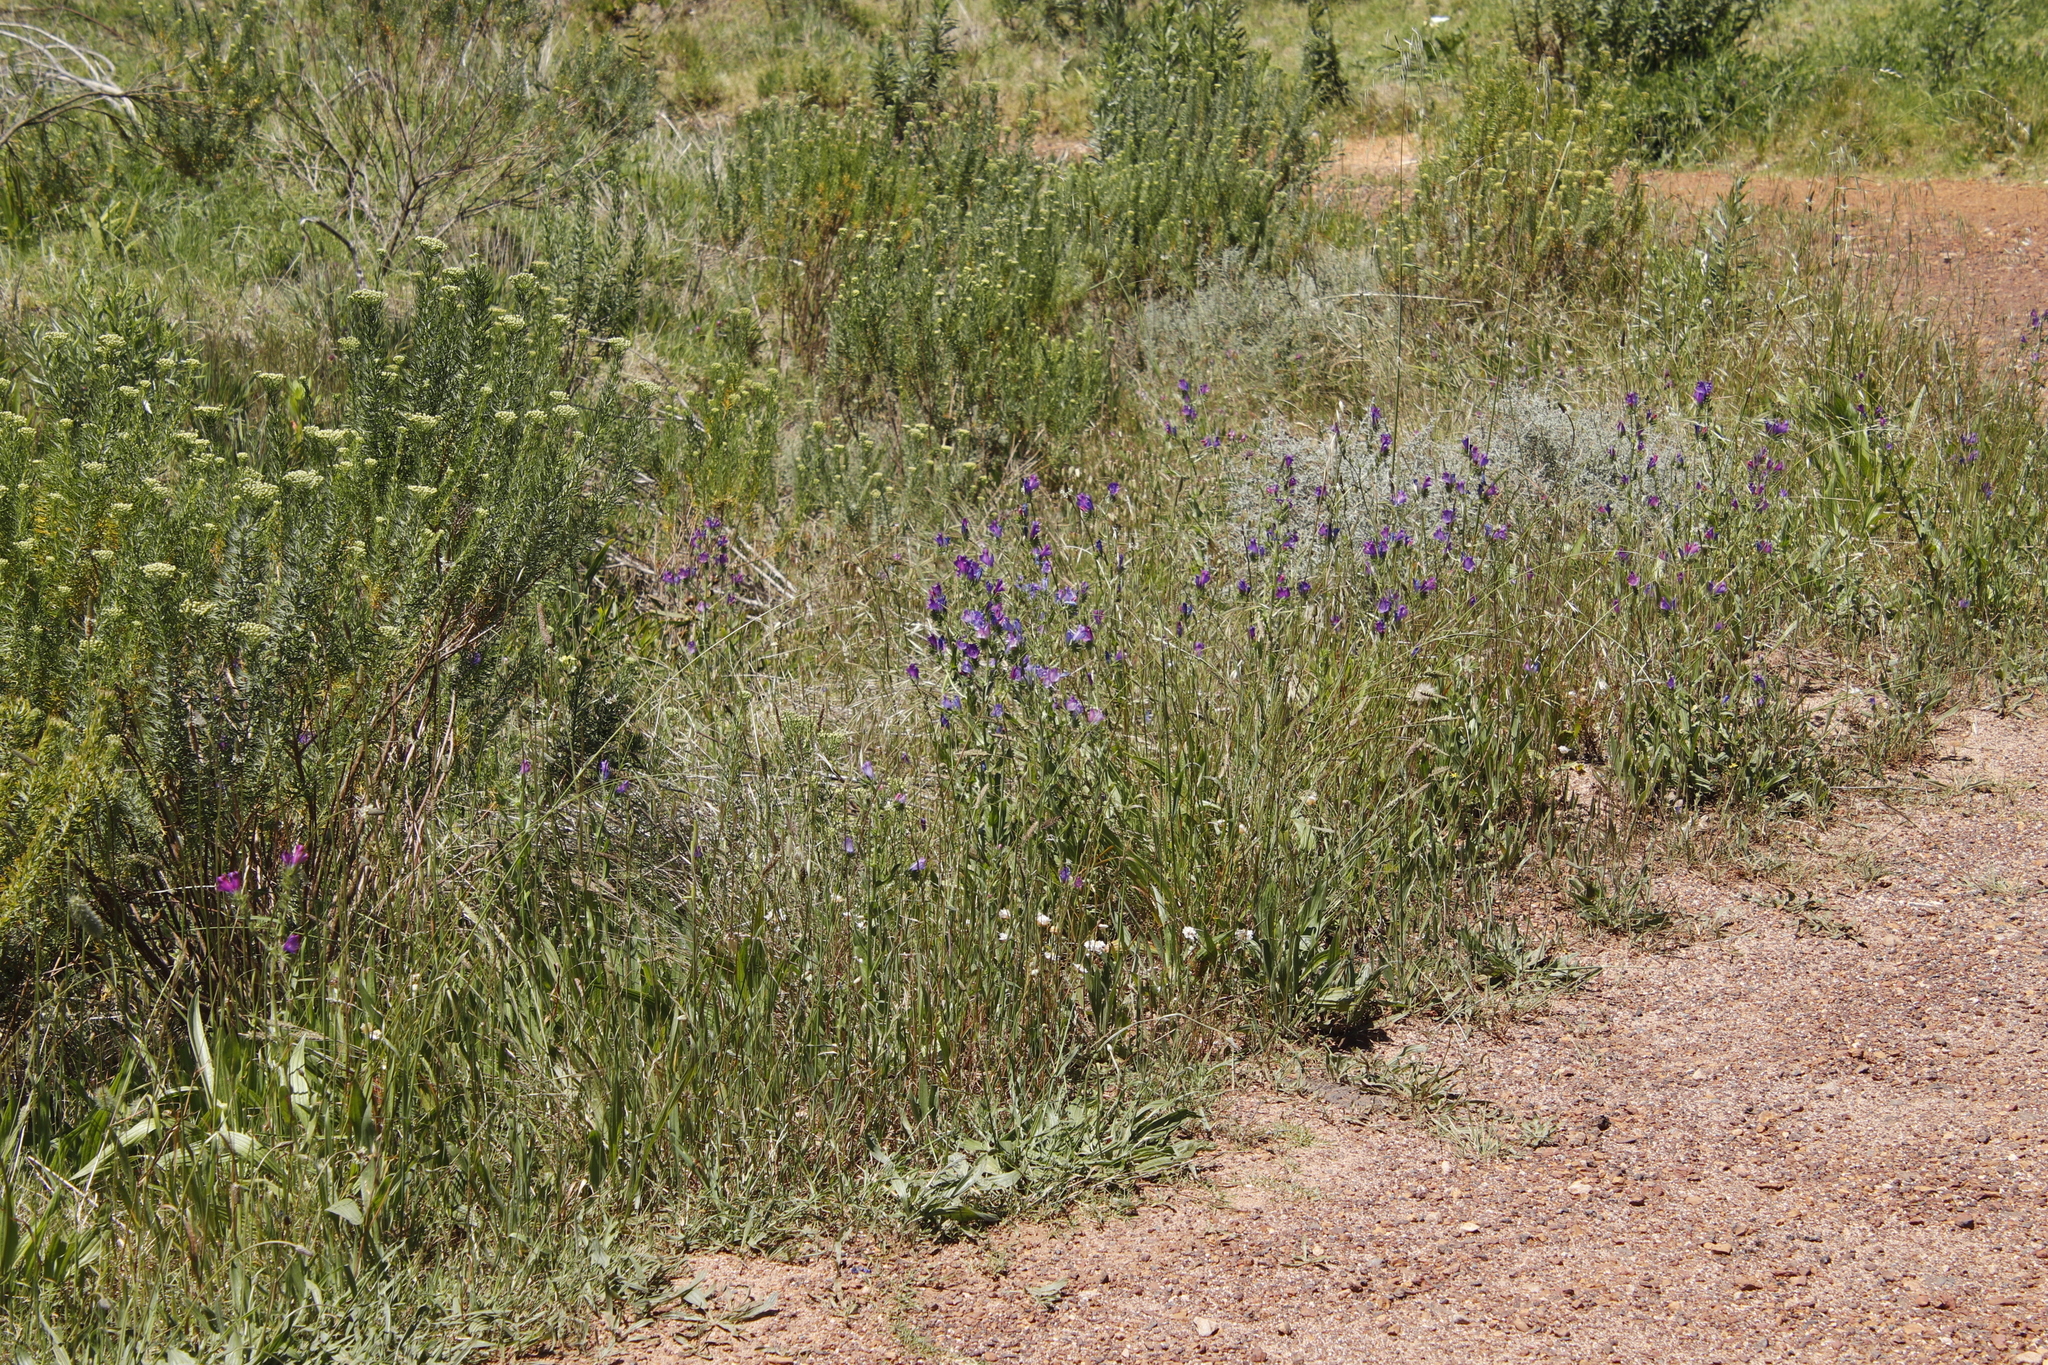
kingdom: Plantae
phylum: Tracheophyta
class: Magnoliopsida
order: Boraginales
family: Boraginaceae
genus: Echium
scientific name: Echium plantagineum
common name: Purple viper's-bugloss
